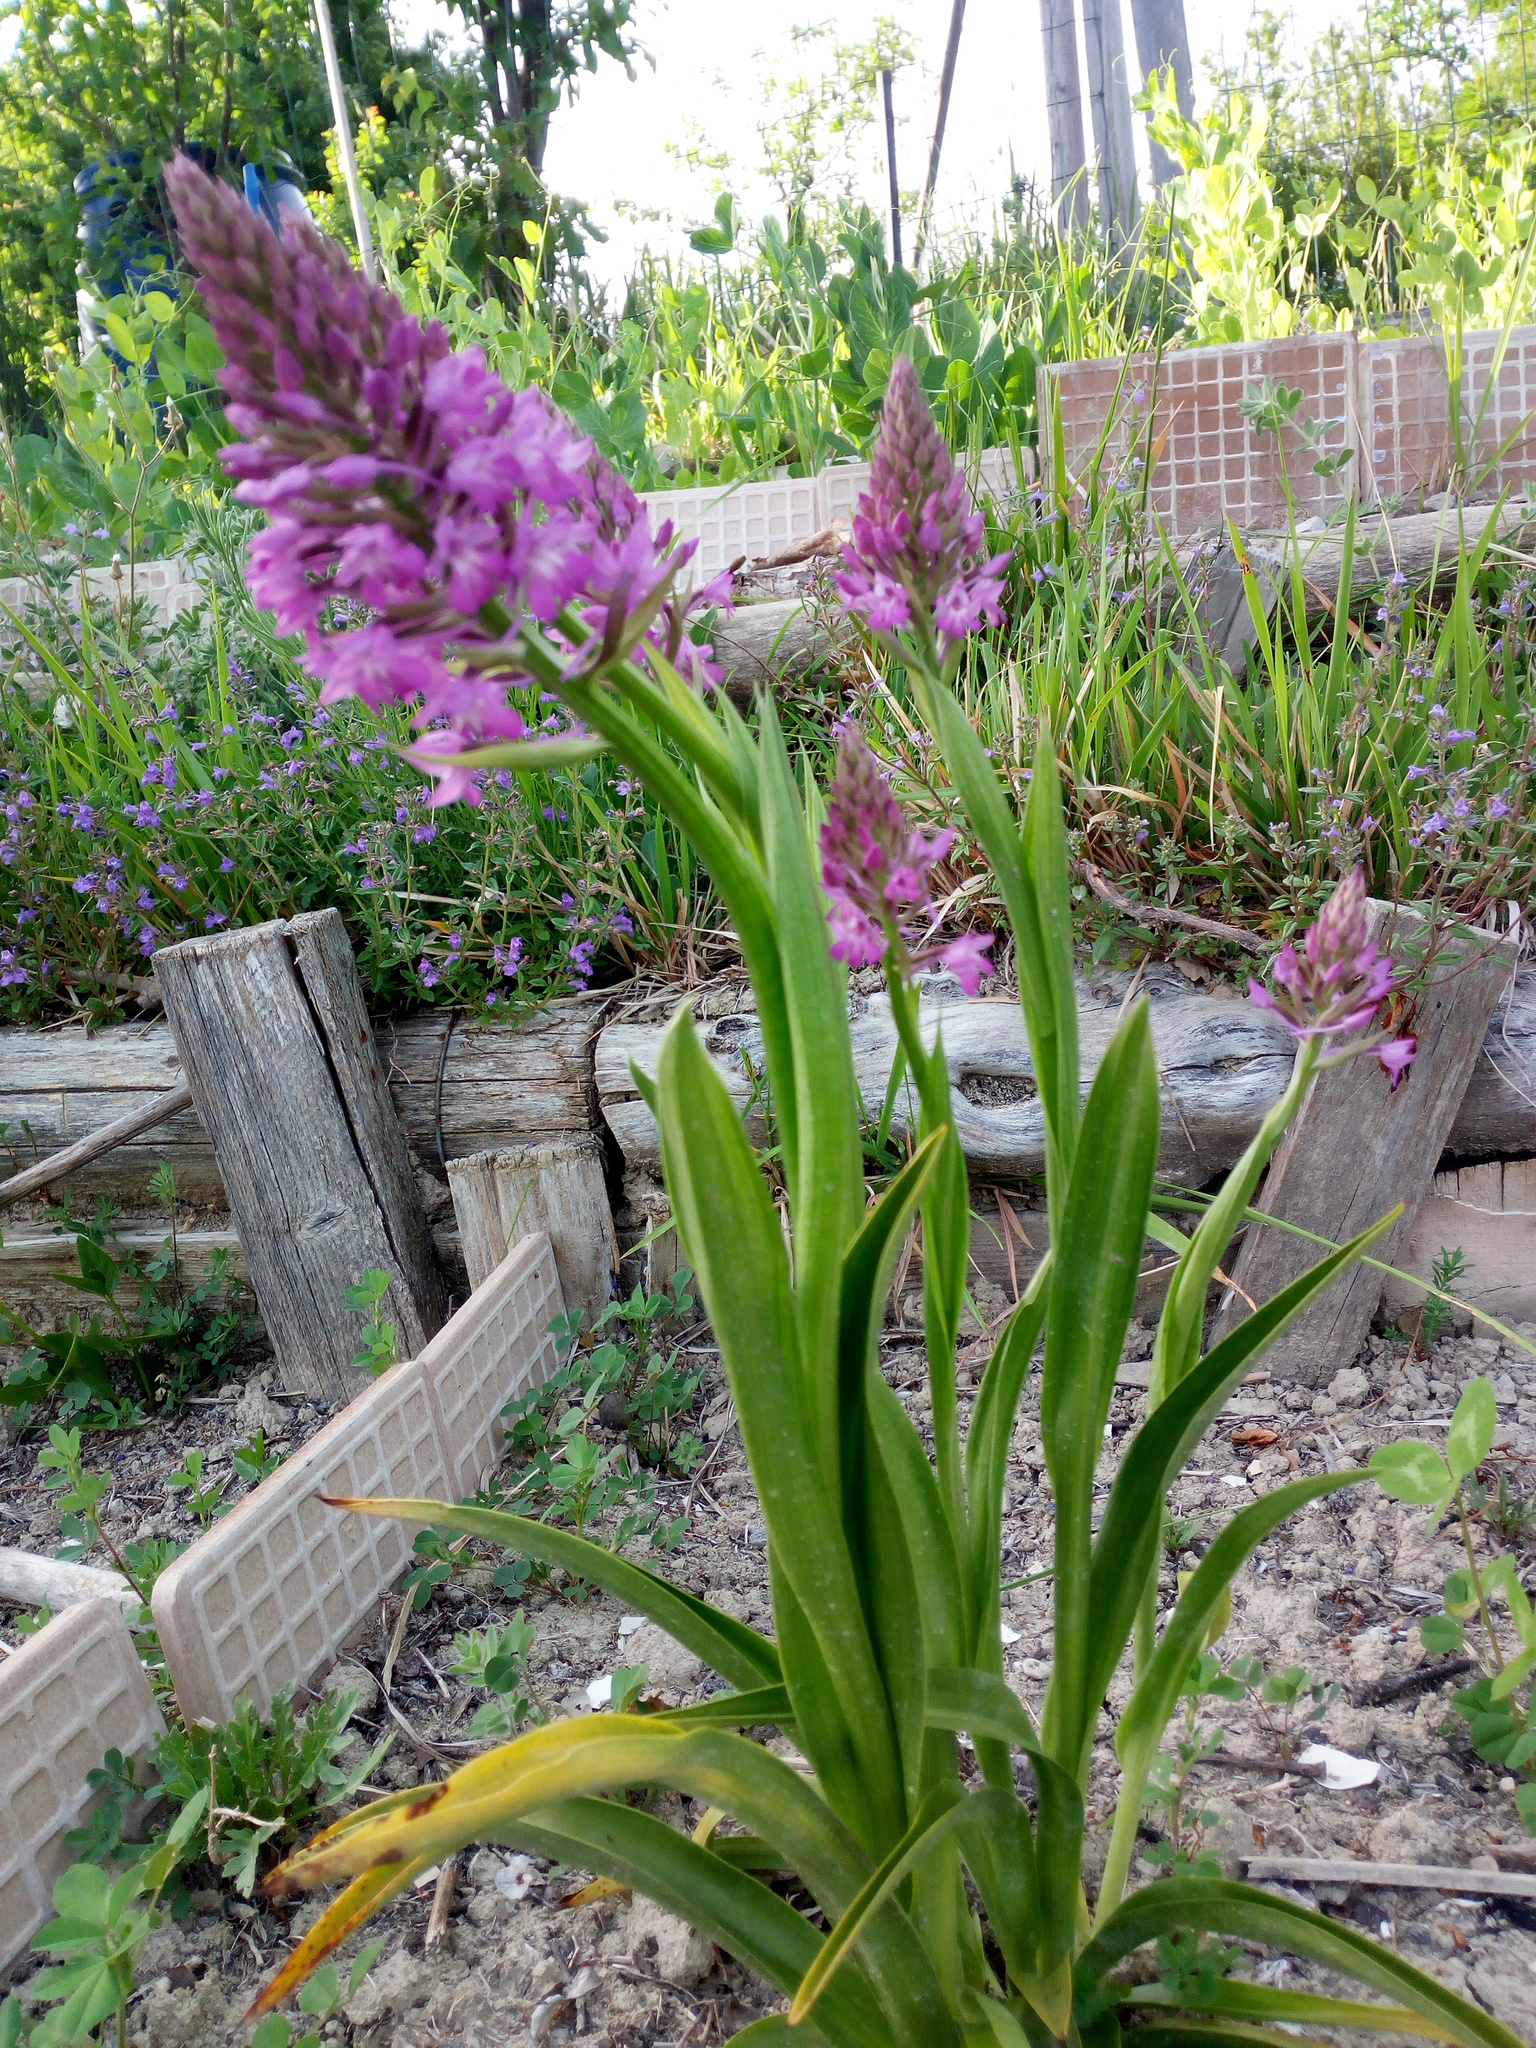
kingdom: Plantae
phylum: Tracheophyta
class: Liliopsida
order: Asparagales
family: Orchidaceae
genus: Anacamptis
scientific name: Anacamptis pyramidalis
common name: Pyramidal orchid
